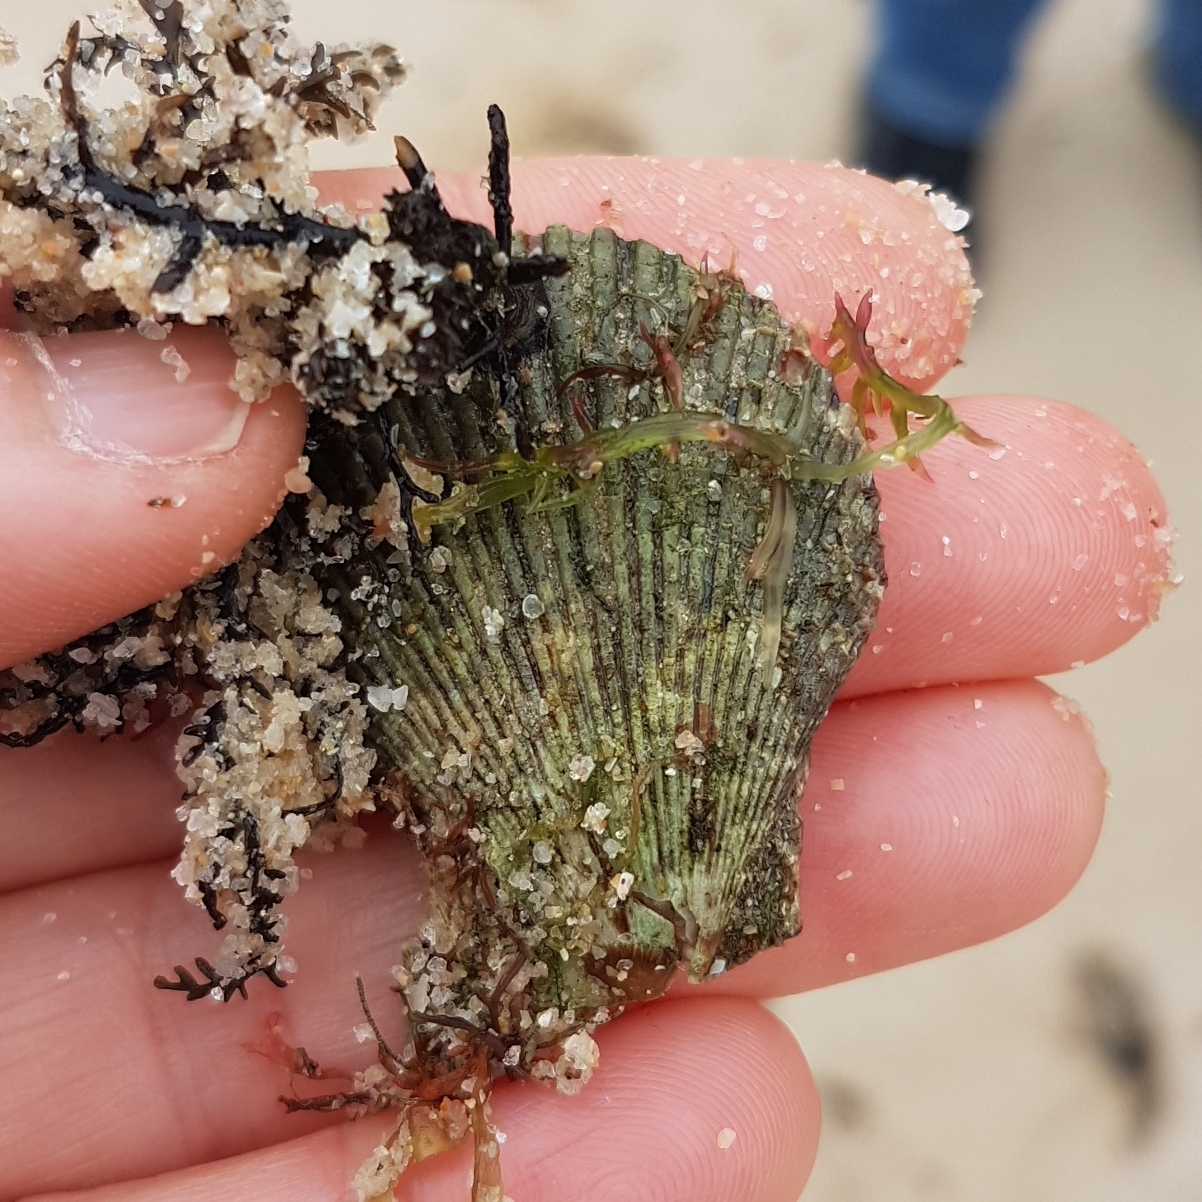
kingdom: Animalia
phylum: Mollusca
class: Bivalvia
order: Pectinida
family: Pectinidae
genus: Mimachlamys
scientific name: Mimachlamys varia
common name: Variegated scallop
